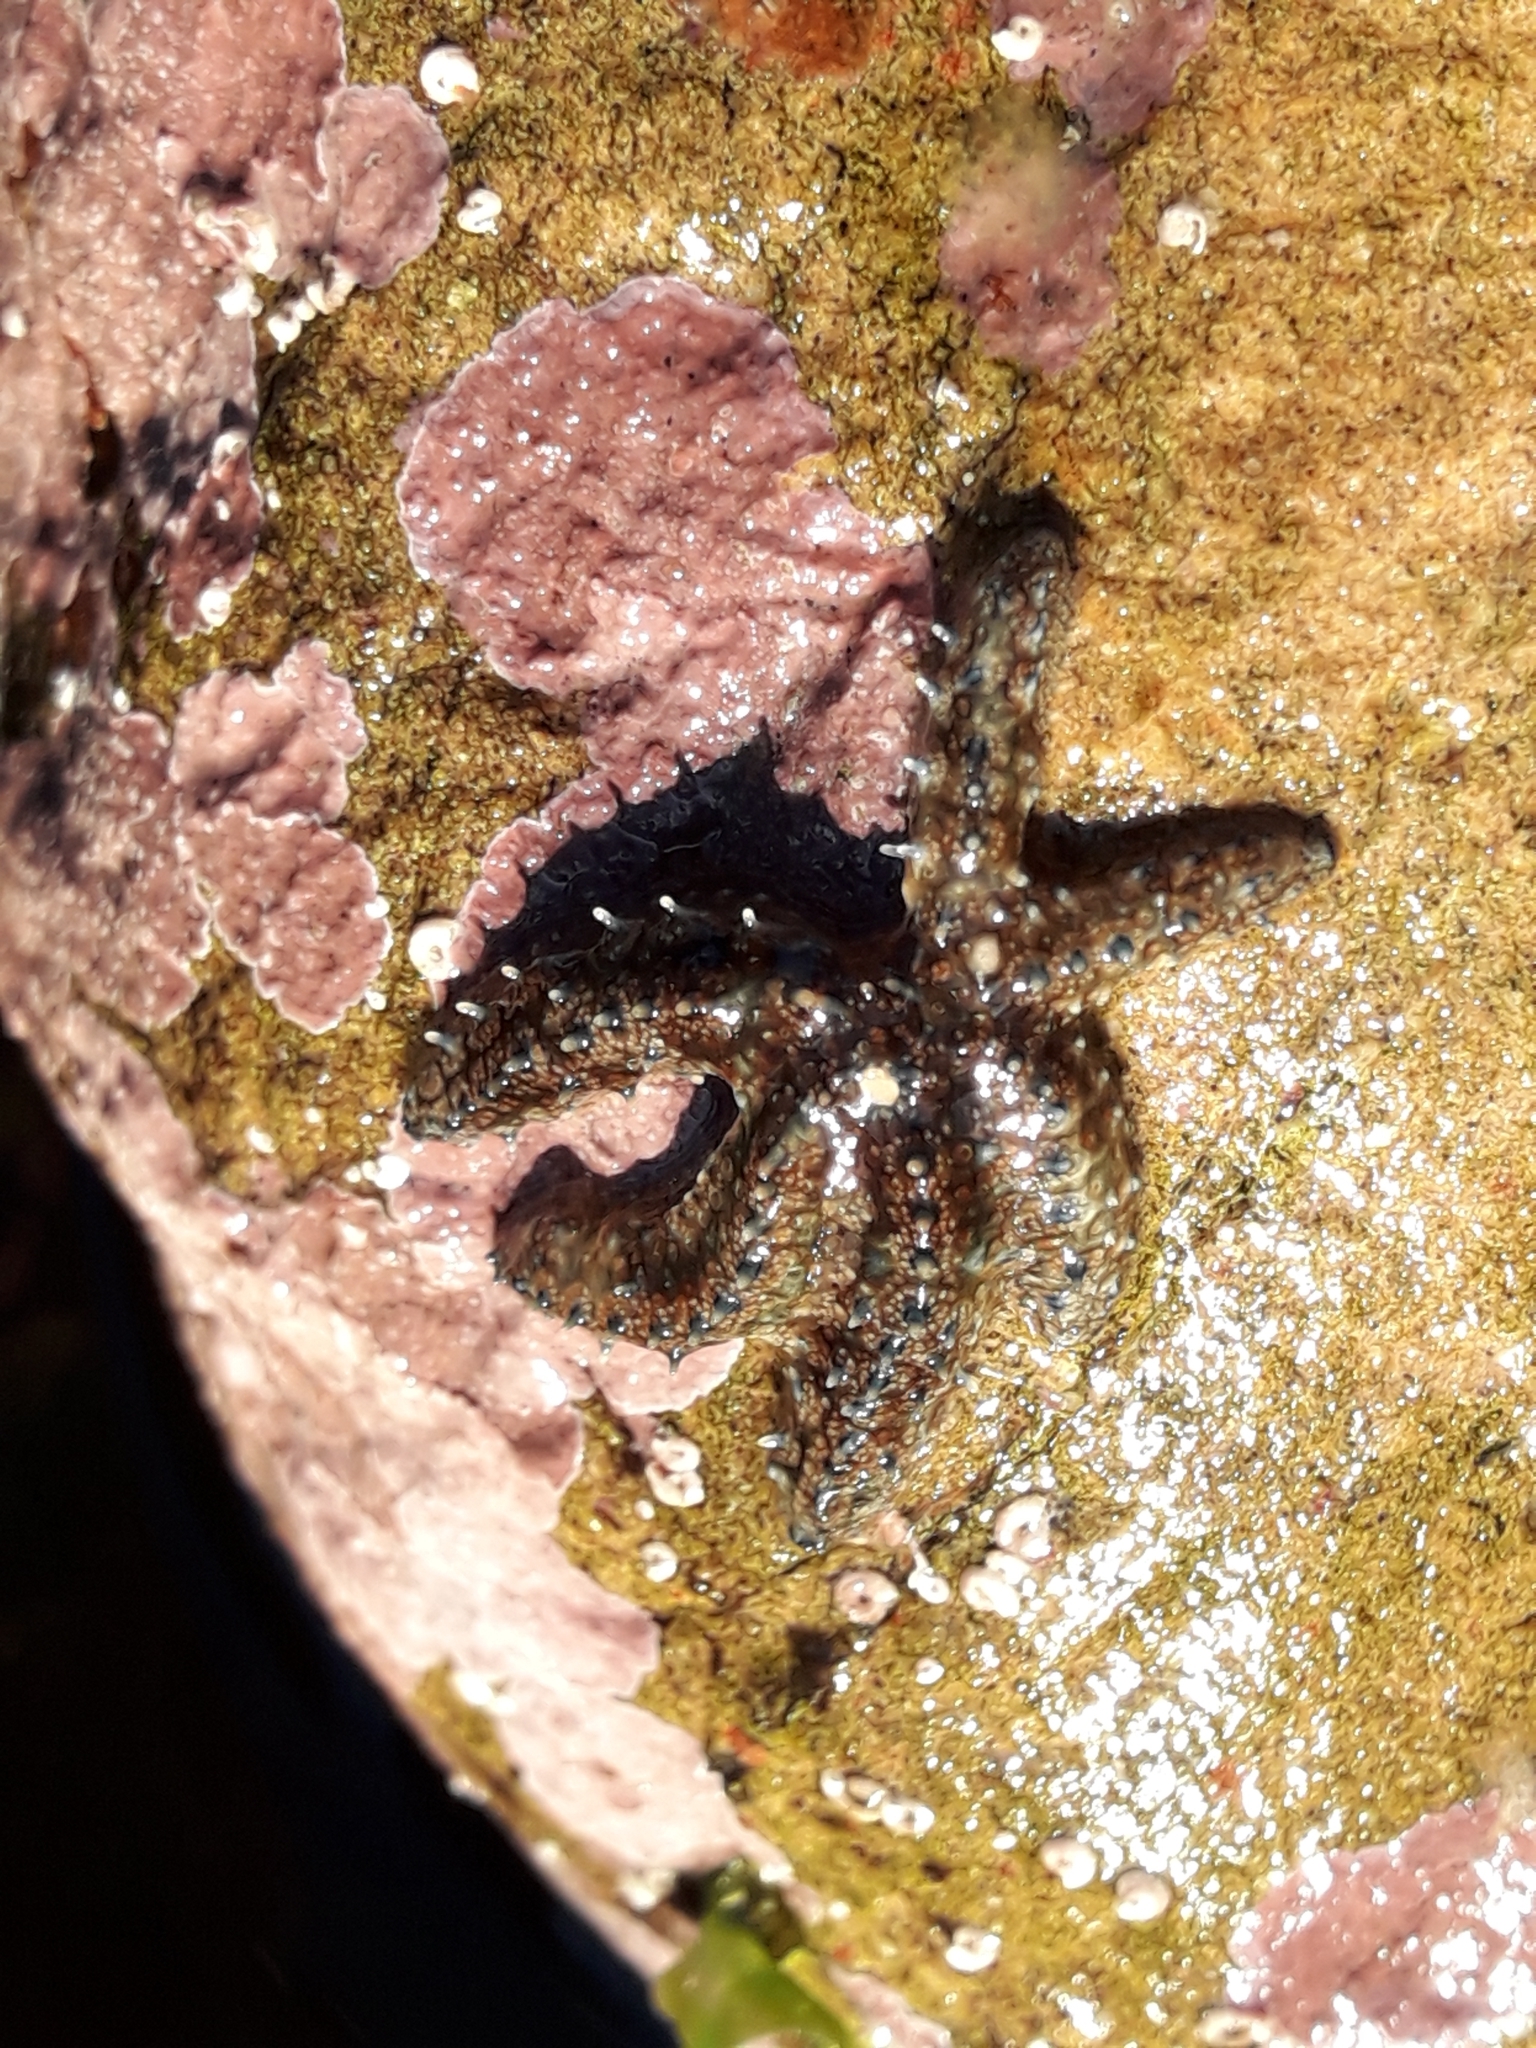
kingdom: Animalia
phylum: Echinodermata
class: Asteroidea
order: Forcipulatida
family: Asteriidae
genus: Coscinasterias
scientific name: Coscinasterias muricata
